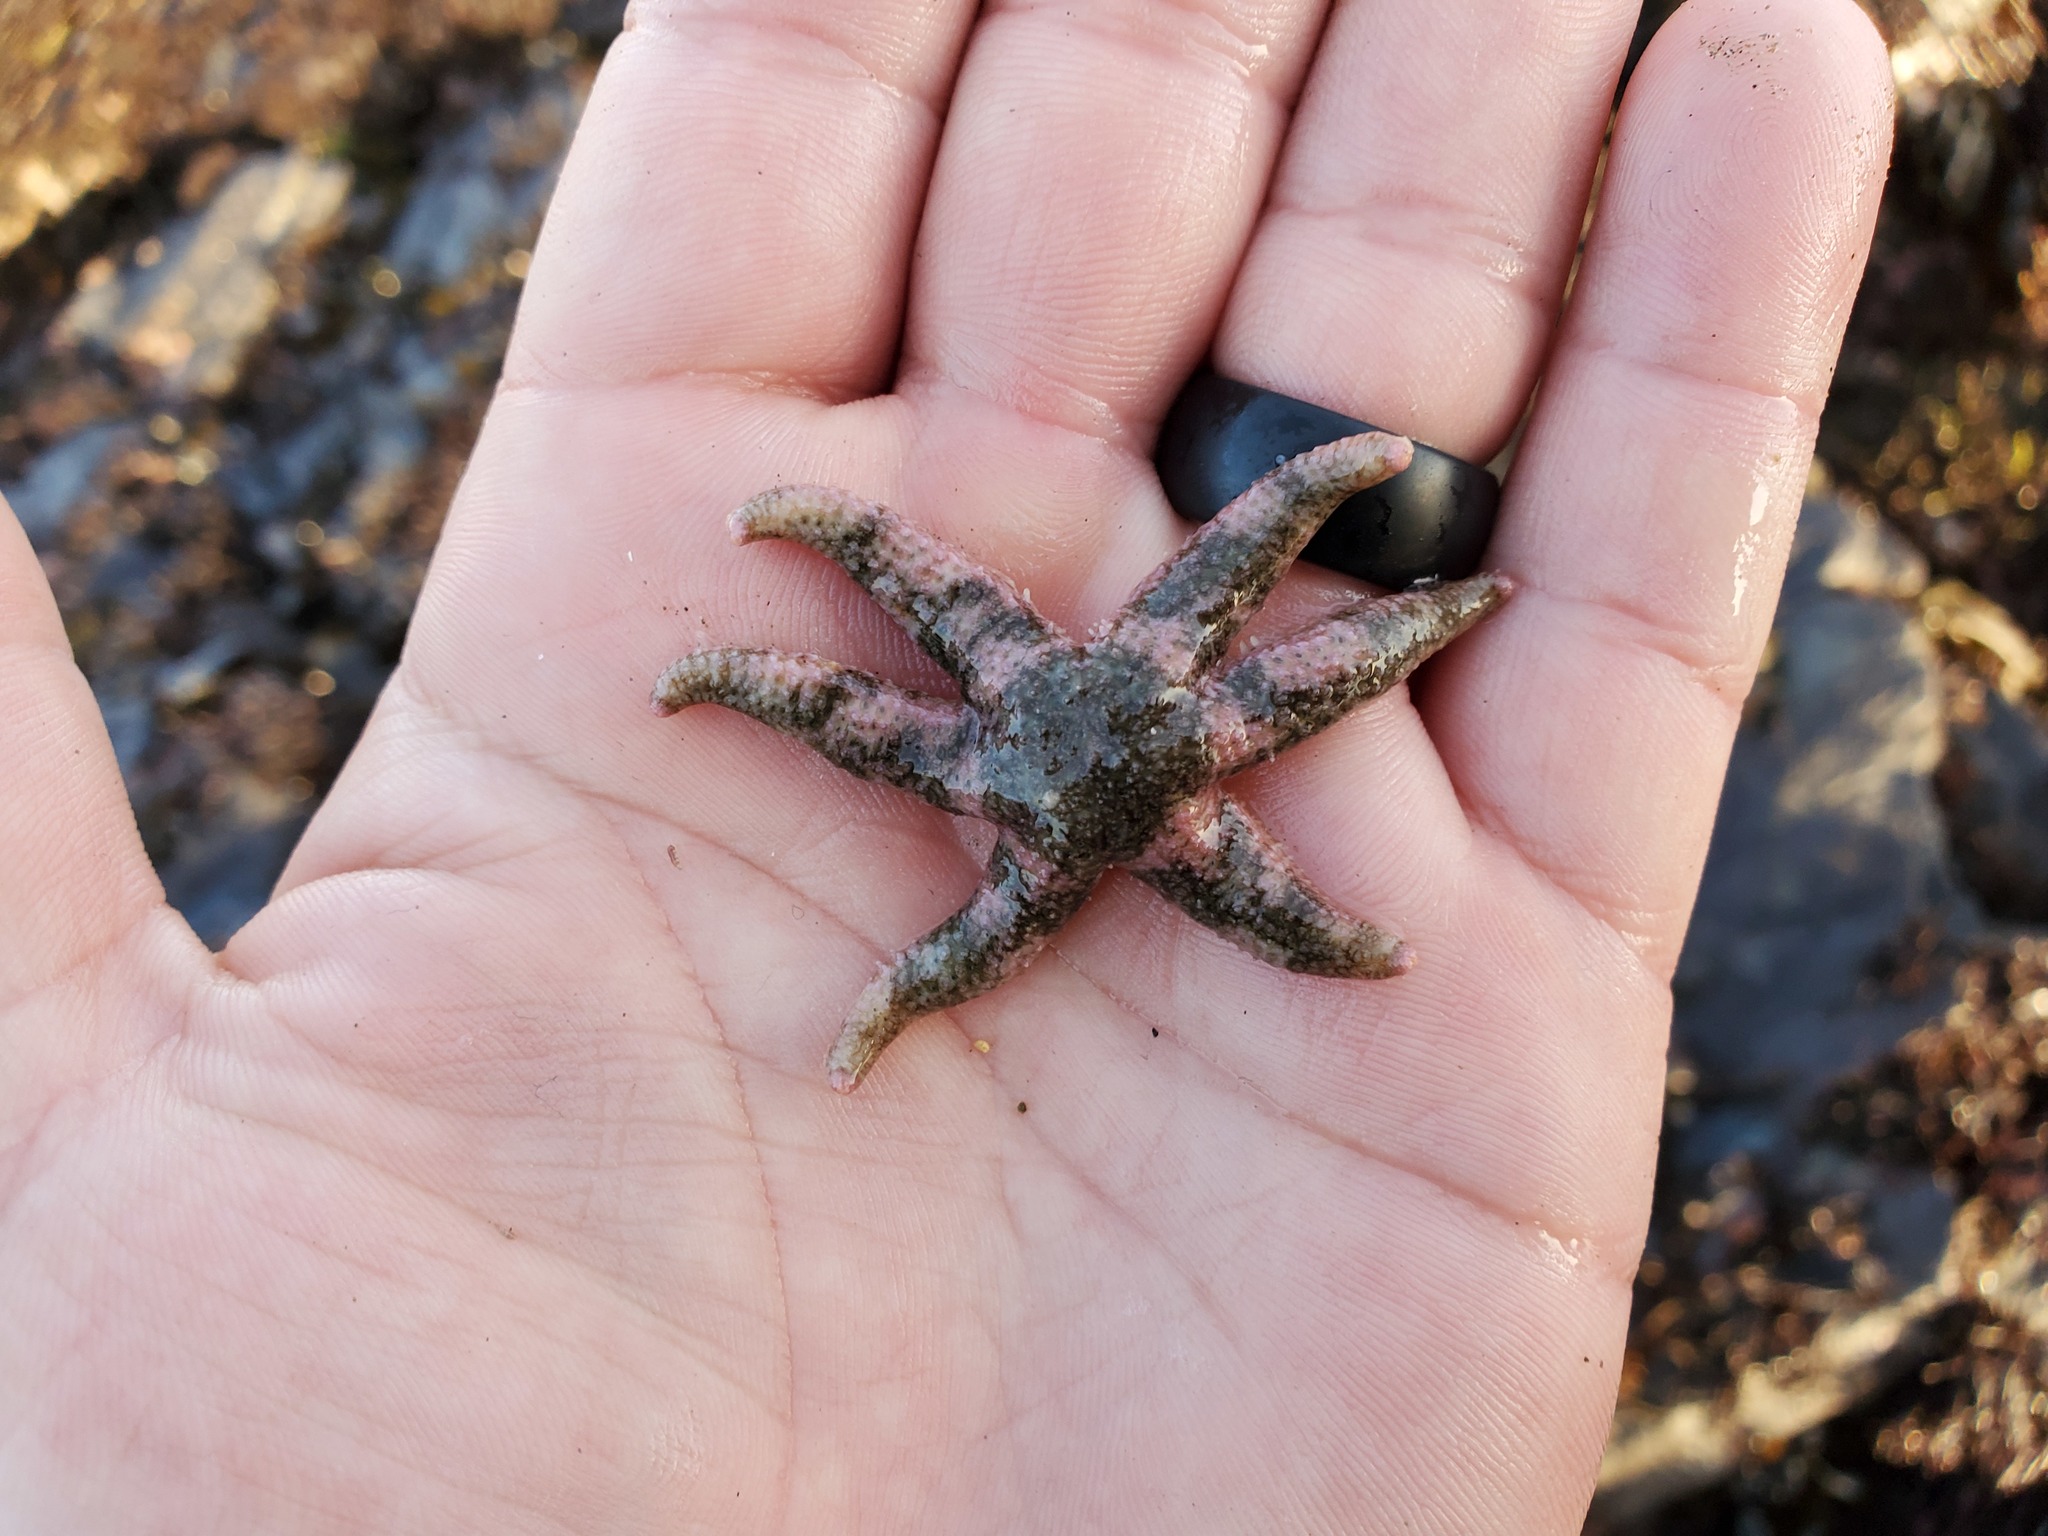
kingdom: Animalia
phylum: Echinodermata
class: Asteroidea
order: Forcipulatida
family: Asteriidae
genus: Leptasterias
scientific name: Leptasterias hexactis
